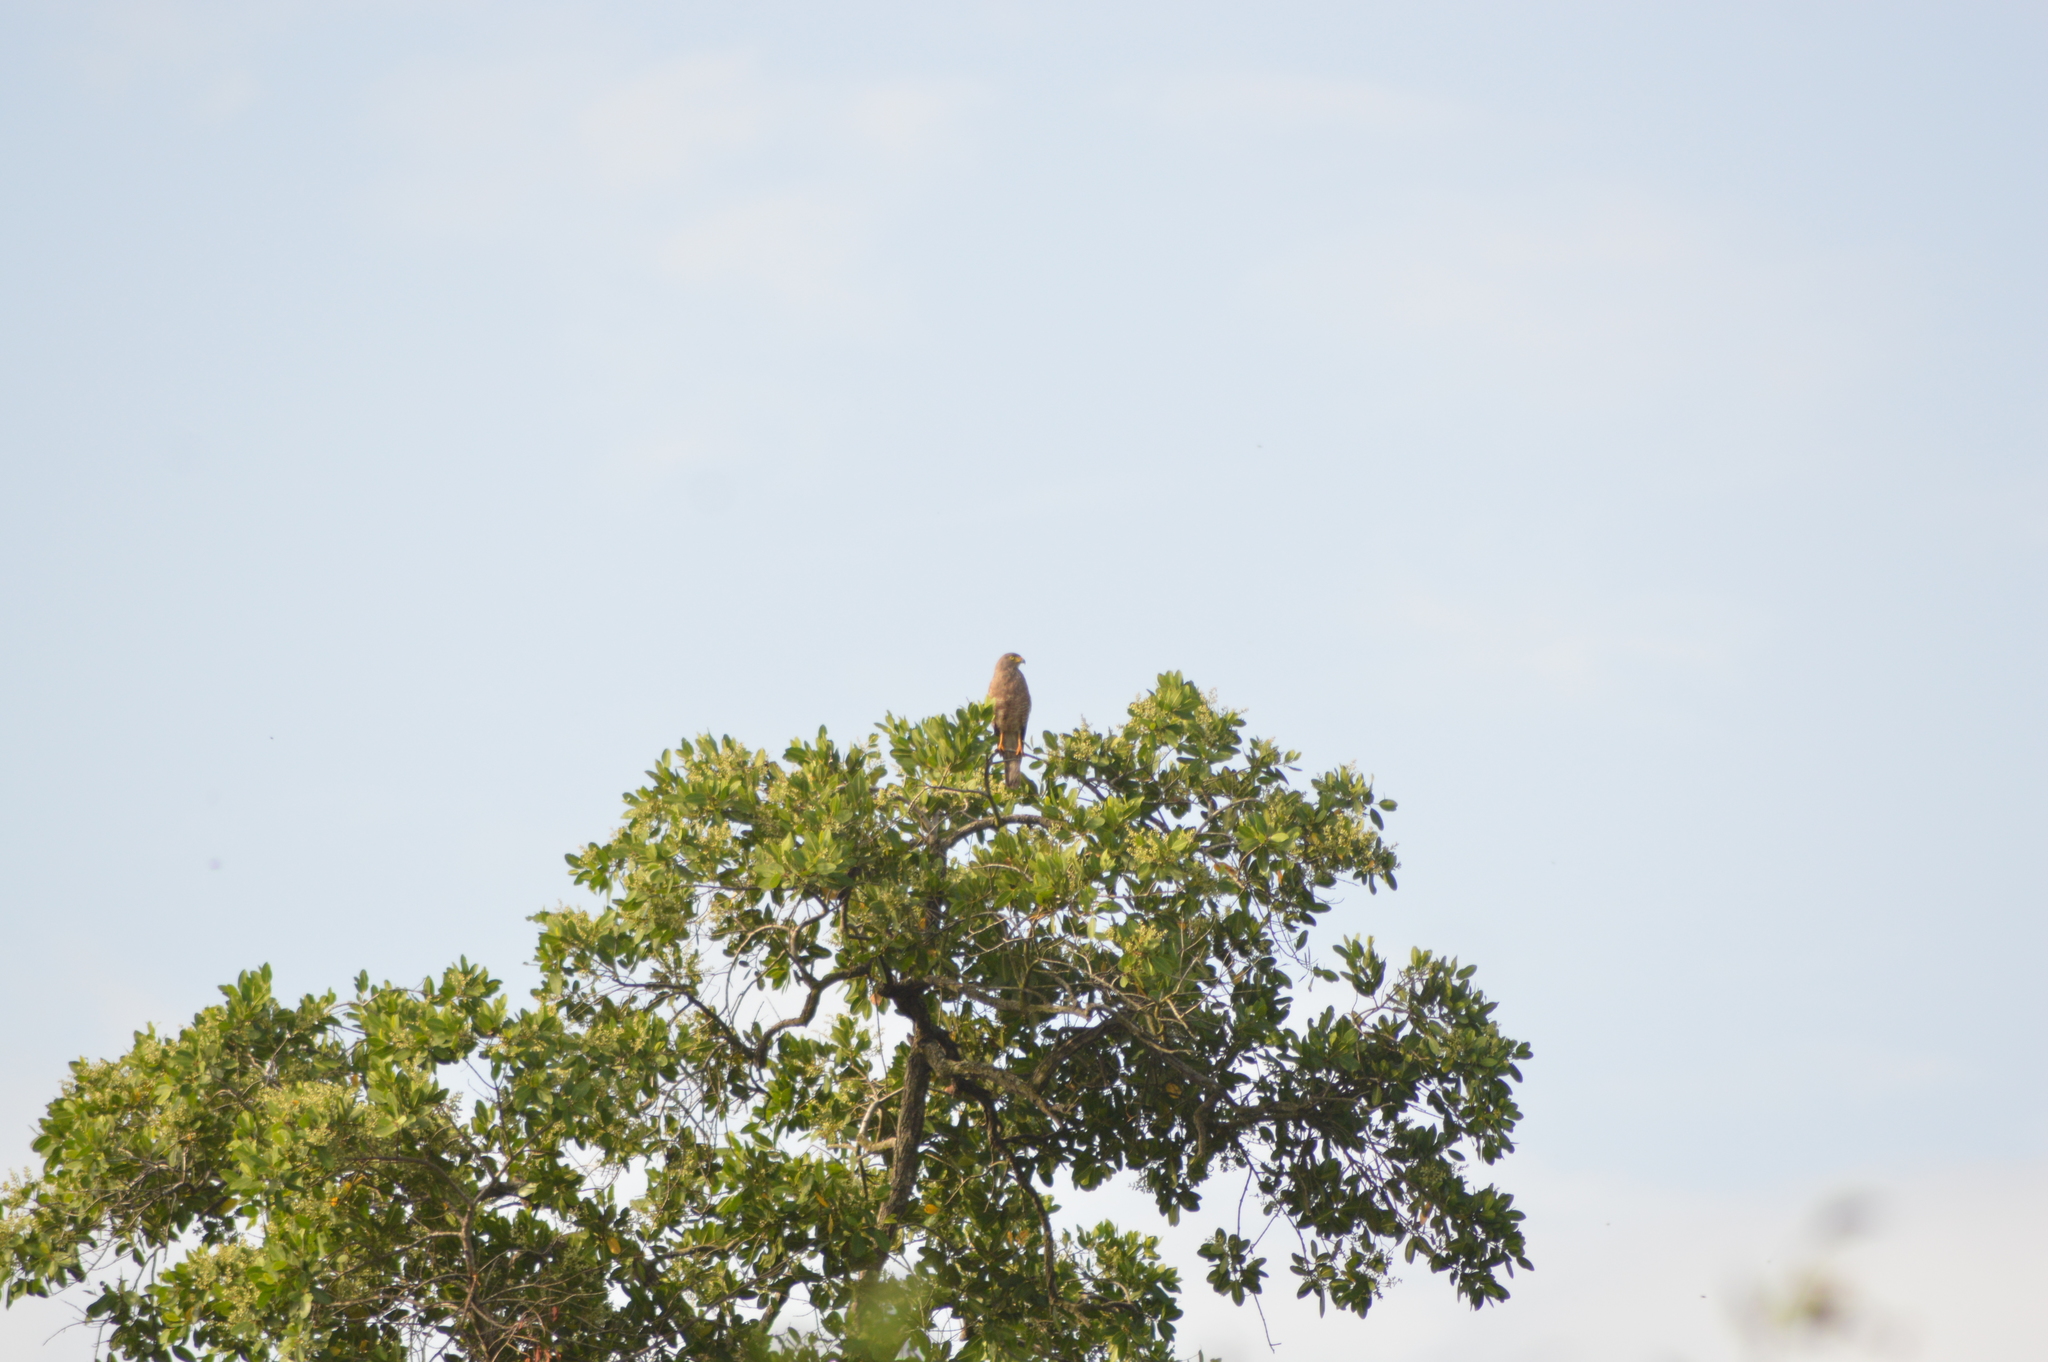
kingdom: Animalia
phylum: Chordata
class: Aves
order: Accipitriformes
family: Accipitridae
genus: Rupornis
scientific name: Rupornis magnirostris
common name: Roadside hawk
